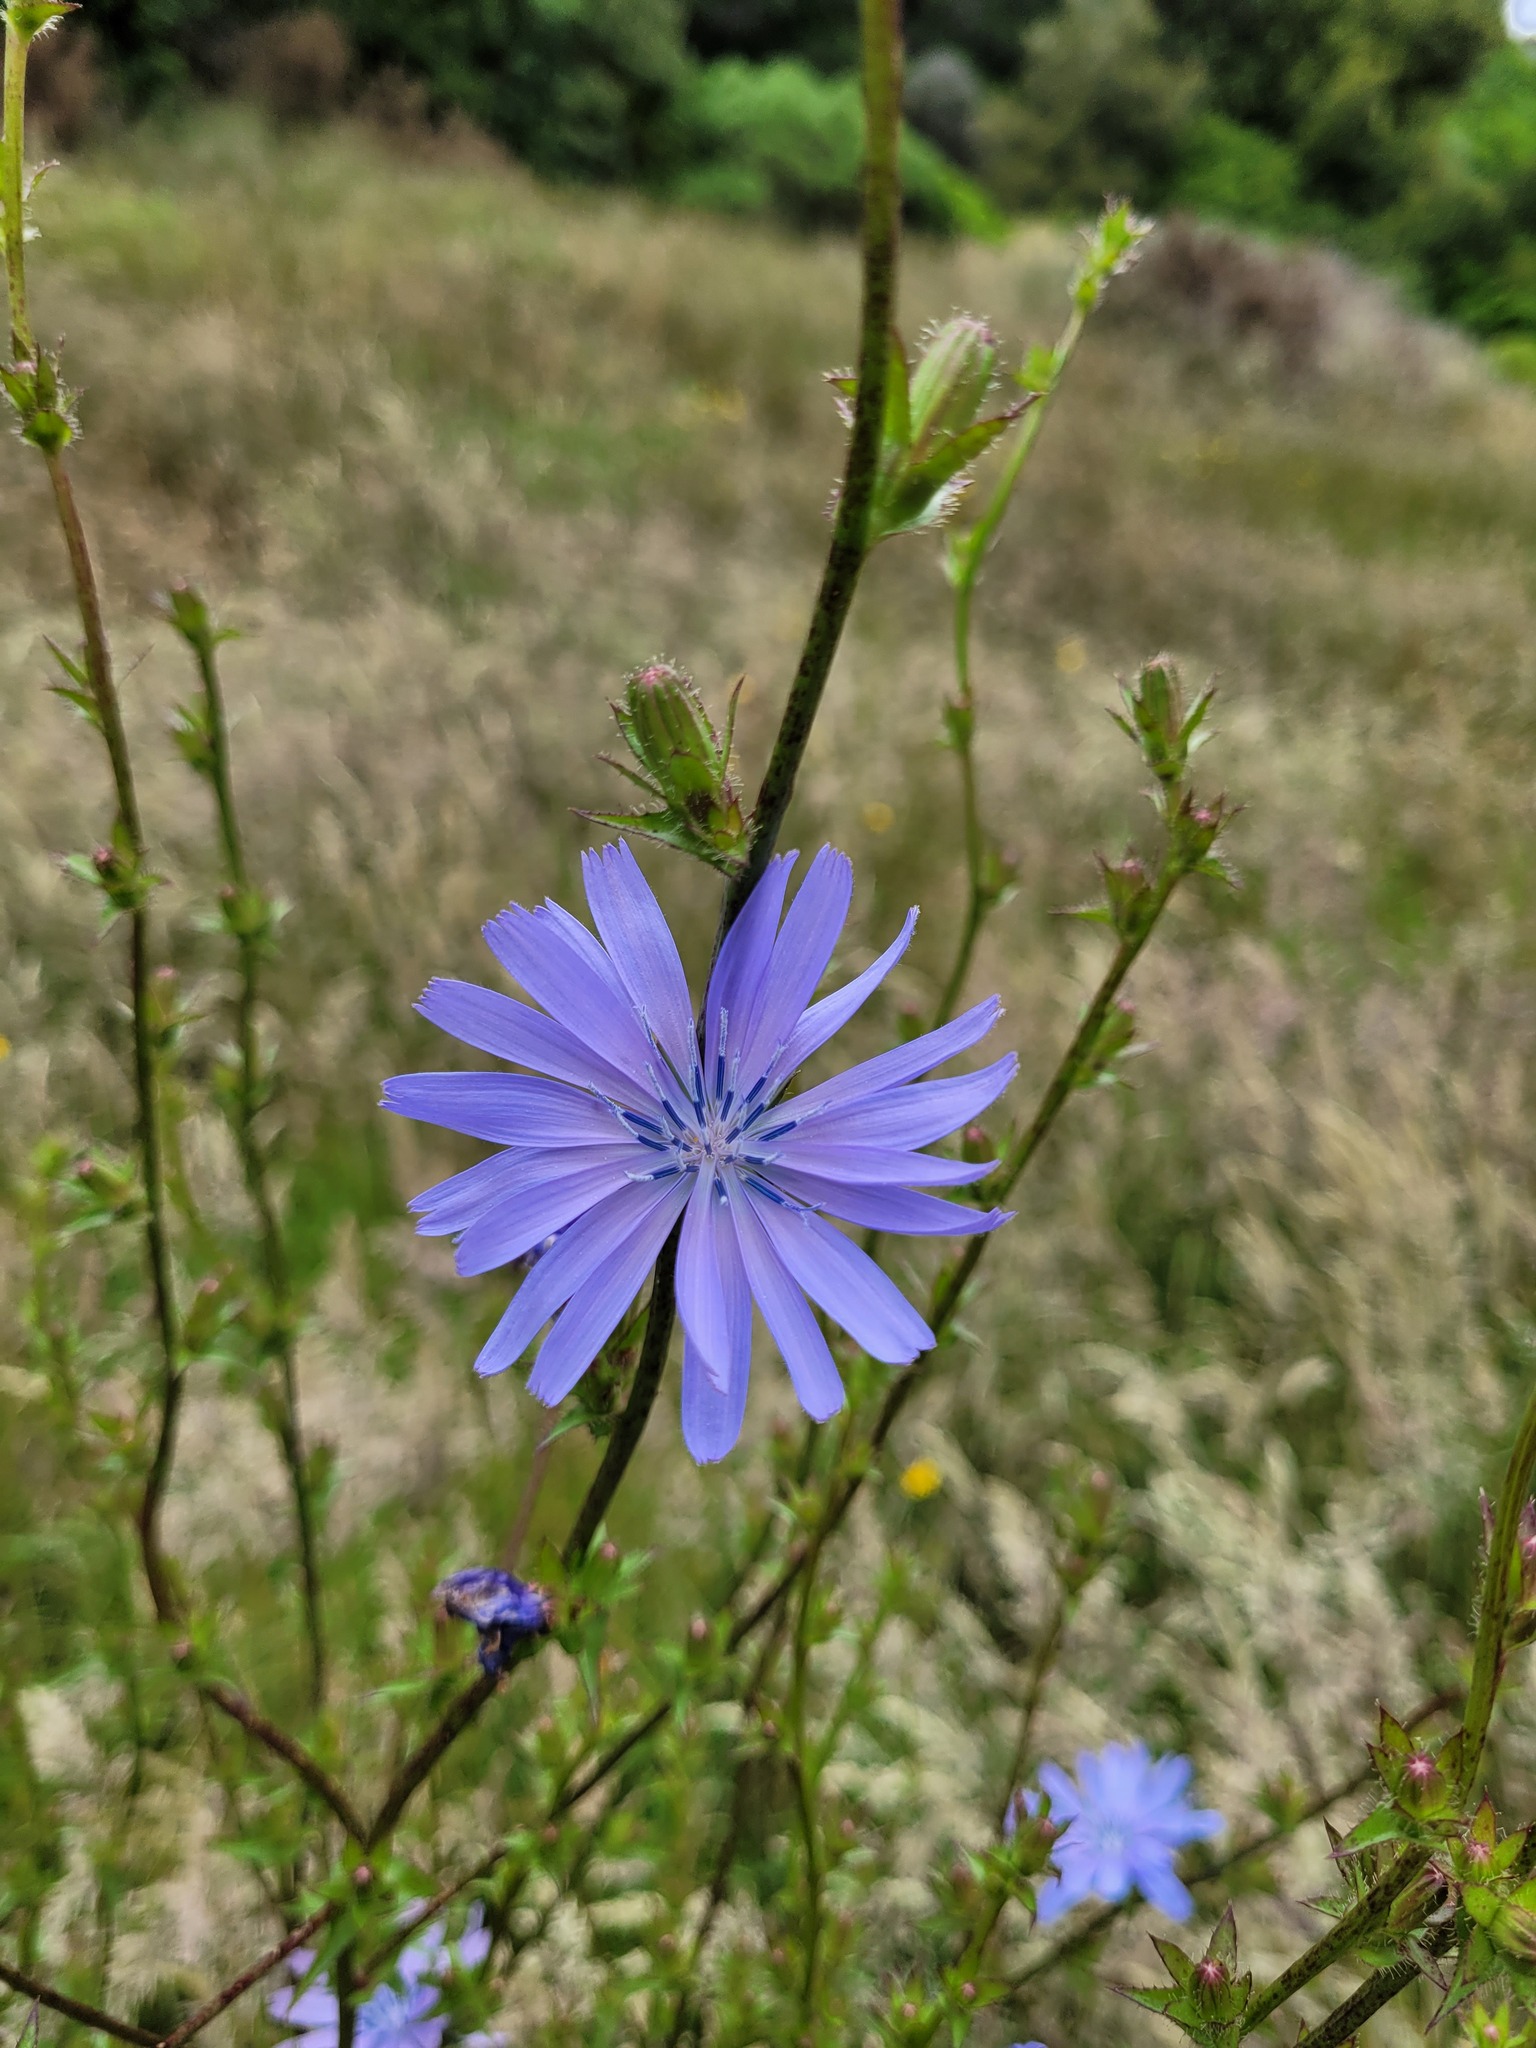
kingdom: Plantae
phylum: Tracheophyta
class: Magnoliopsida
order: Asterales
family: Asteraceae
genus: Cichorium
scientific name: Cichorium intybus
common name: Chicory
